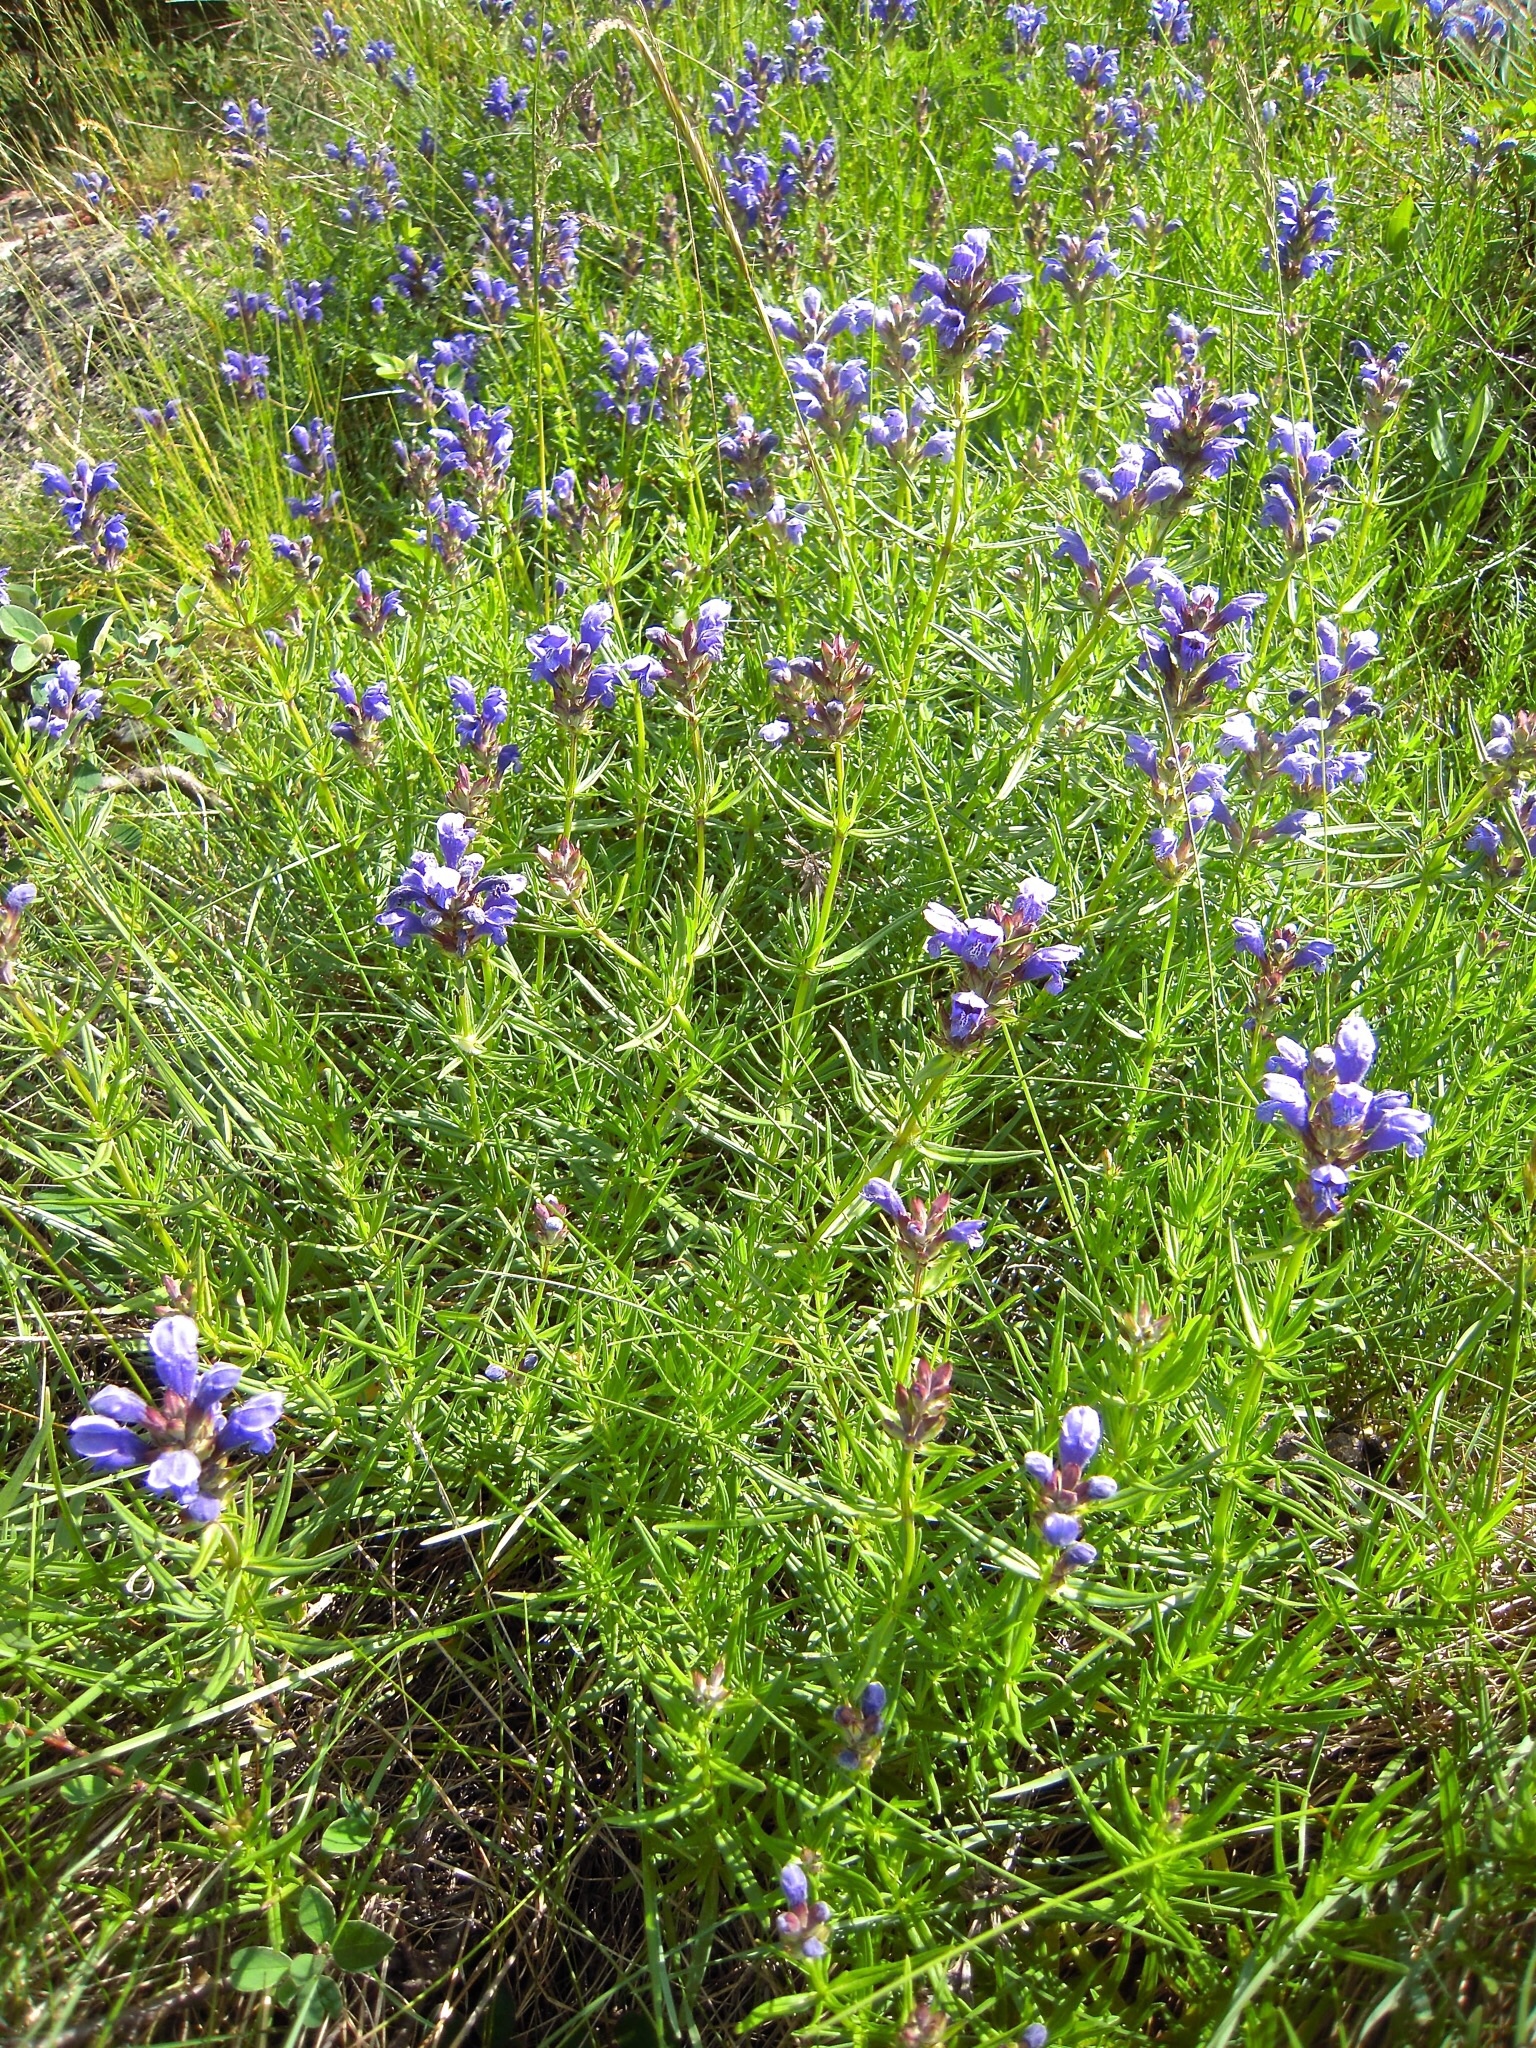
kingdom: Plantae
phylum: Tracheophyta
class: Magnoliopsida
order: Lamiales
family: Lamiaceae
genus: Dracocephalum
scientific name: Dracocephalum ruyschiana
